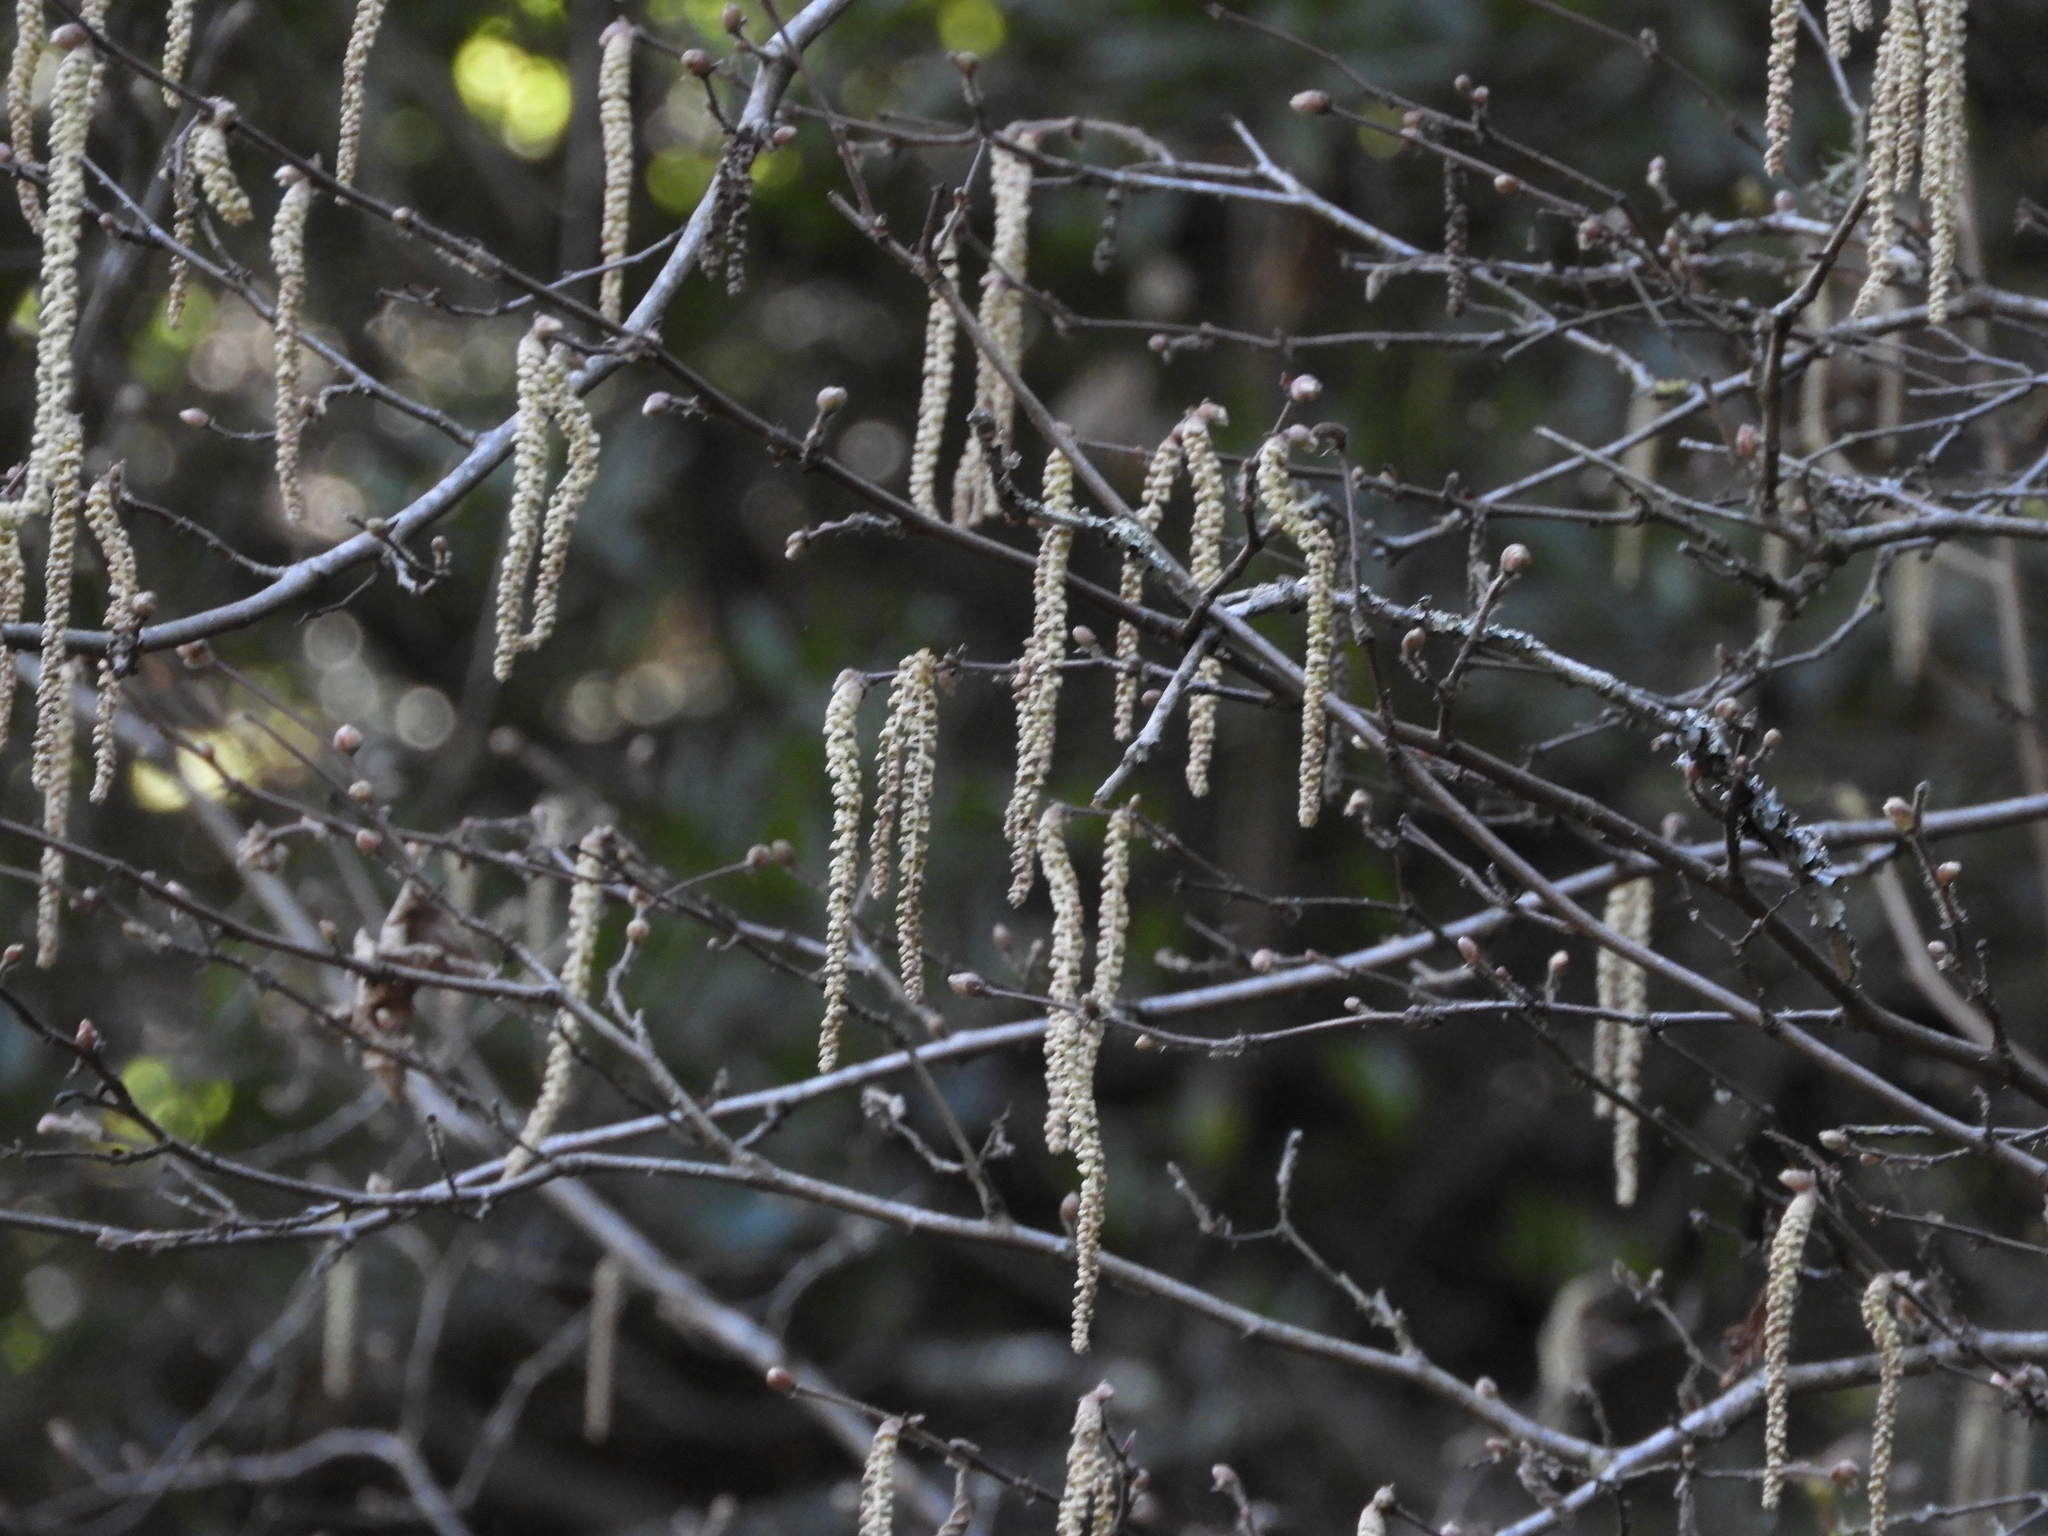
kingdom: Plantae
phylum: Tracheophyta
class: Magnoliopsida
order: Fagales
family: Betulaceae
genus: Corylus
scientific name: Corylus cornuta
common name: Beaked hazel
